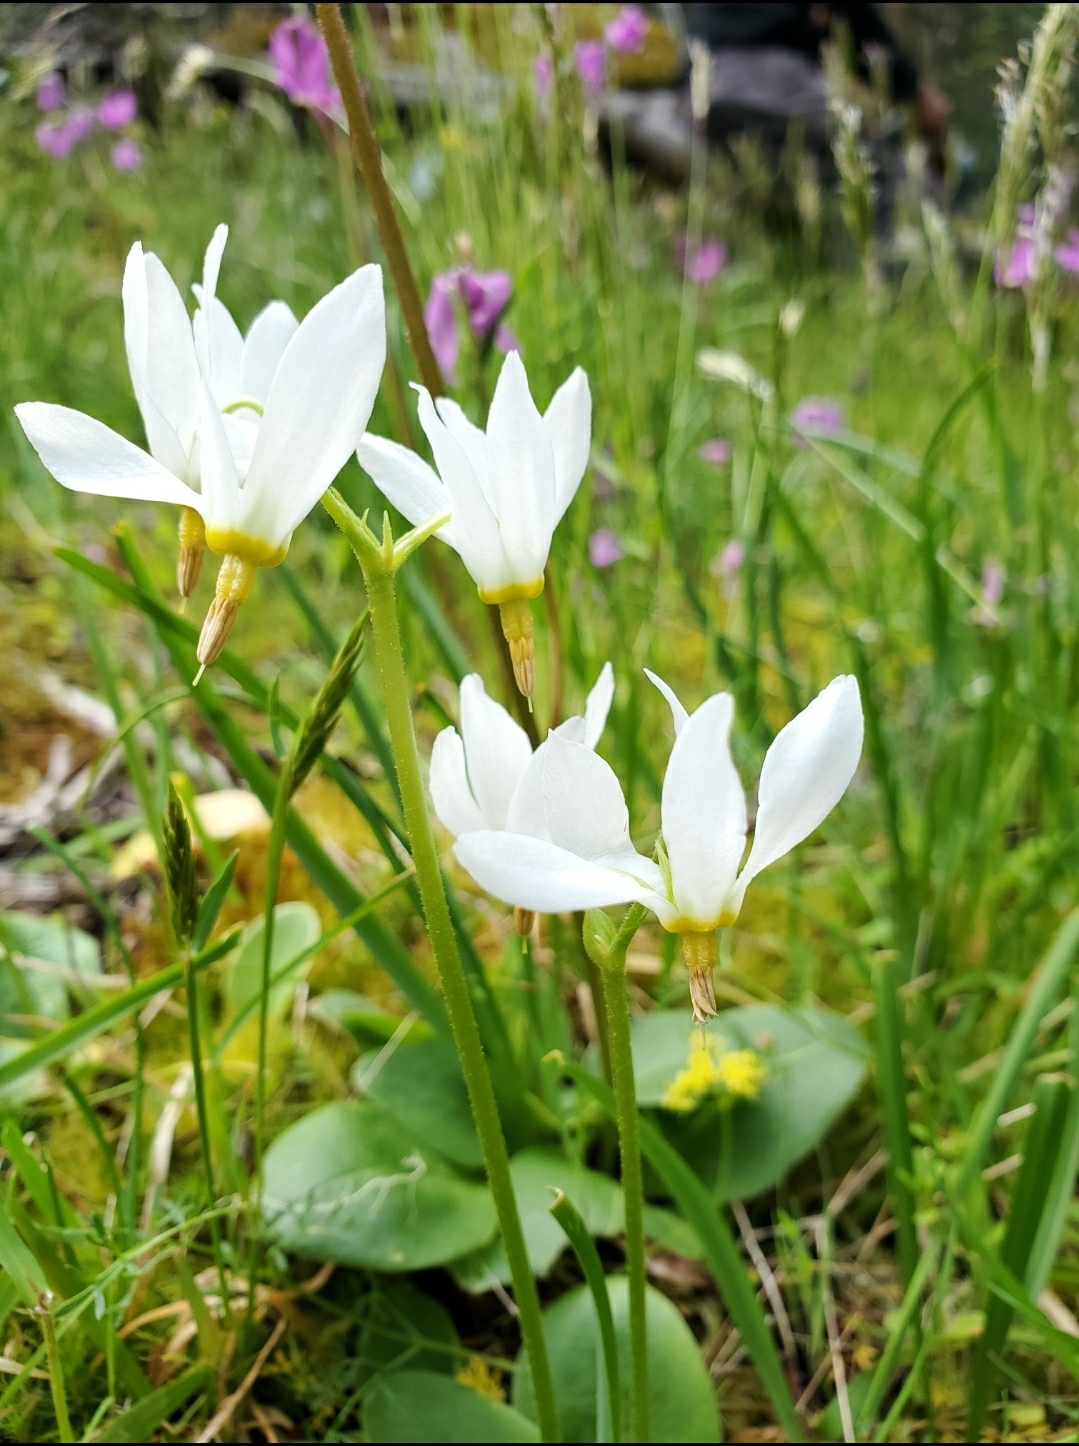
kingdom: Plantae
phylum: Tracheophyta
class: Magnoliopsida
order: Ericales
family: Primulaceae
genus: Dodecatheon
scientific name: Dodecatheon pulchellum
